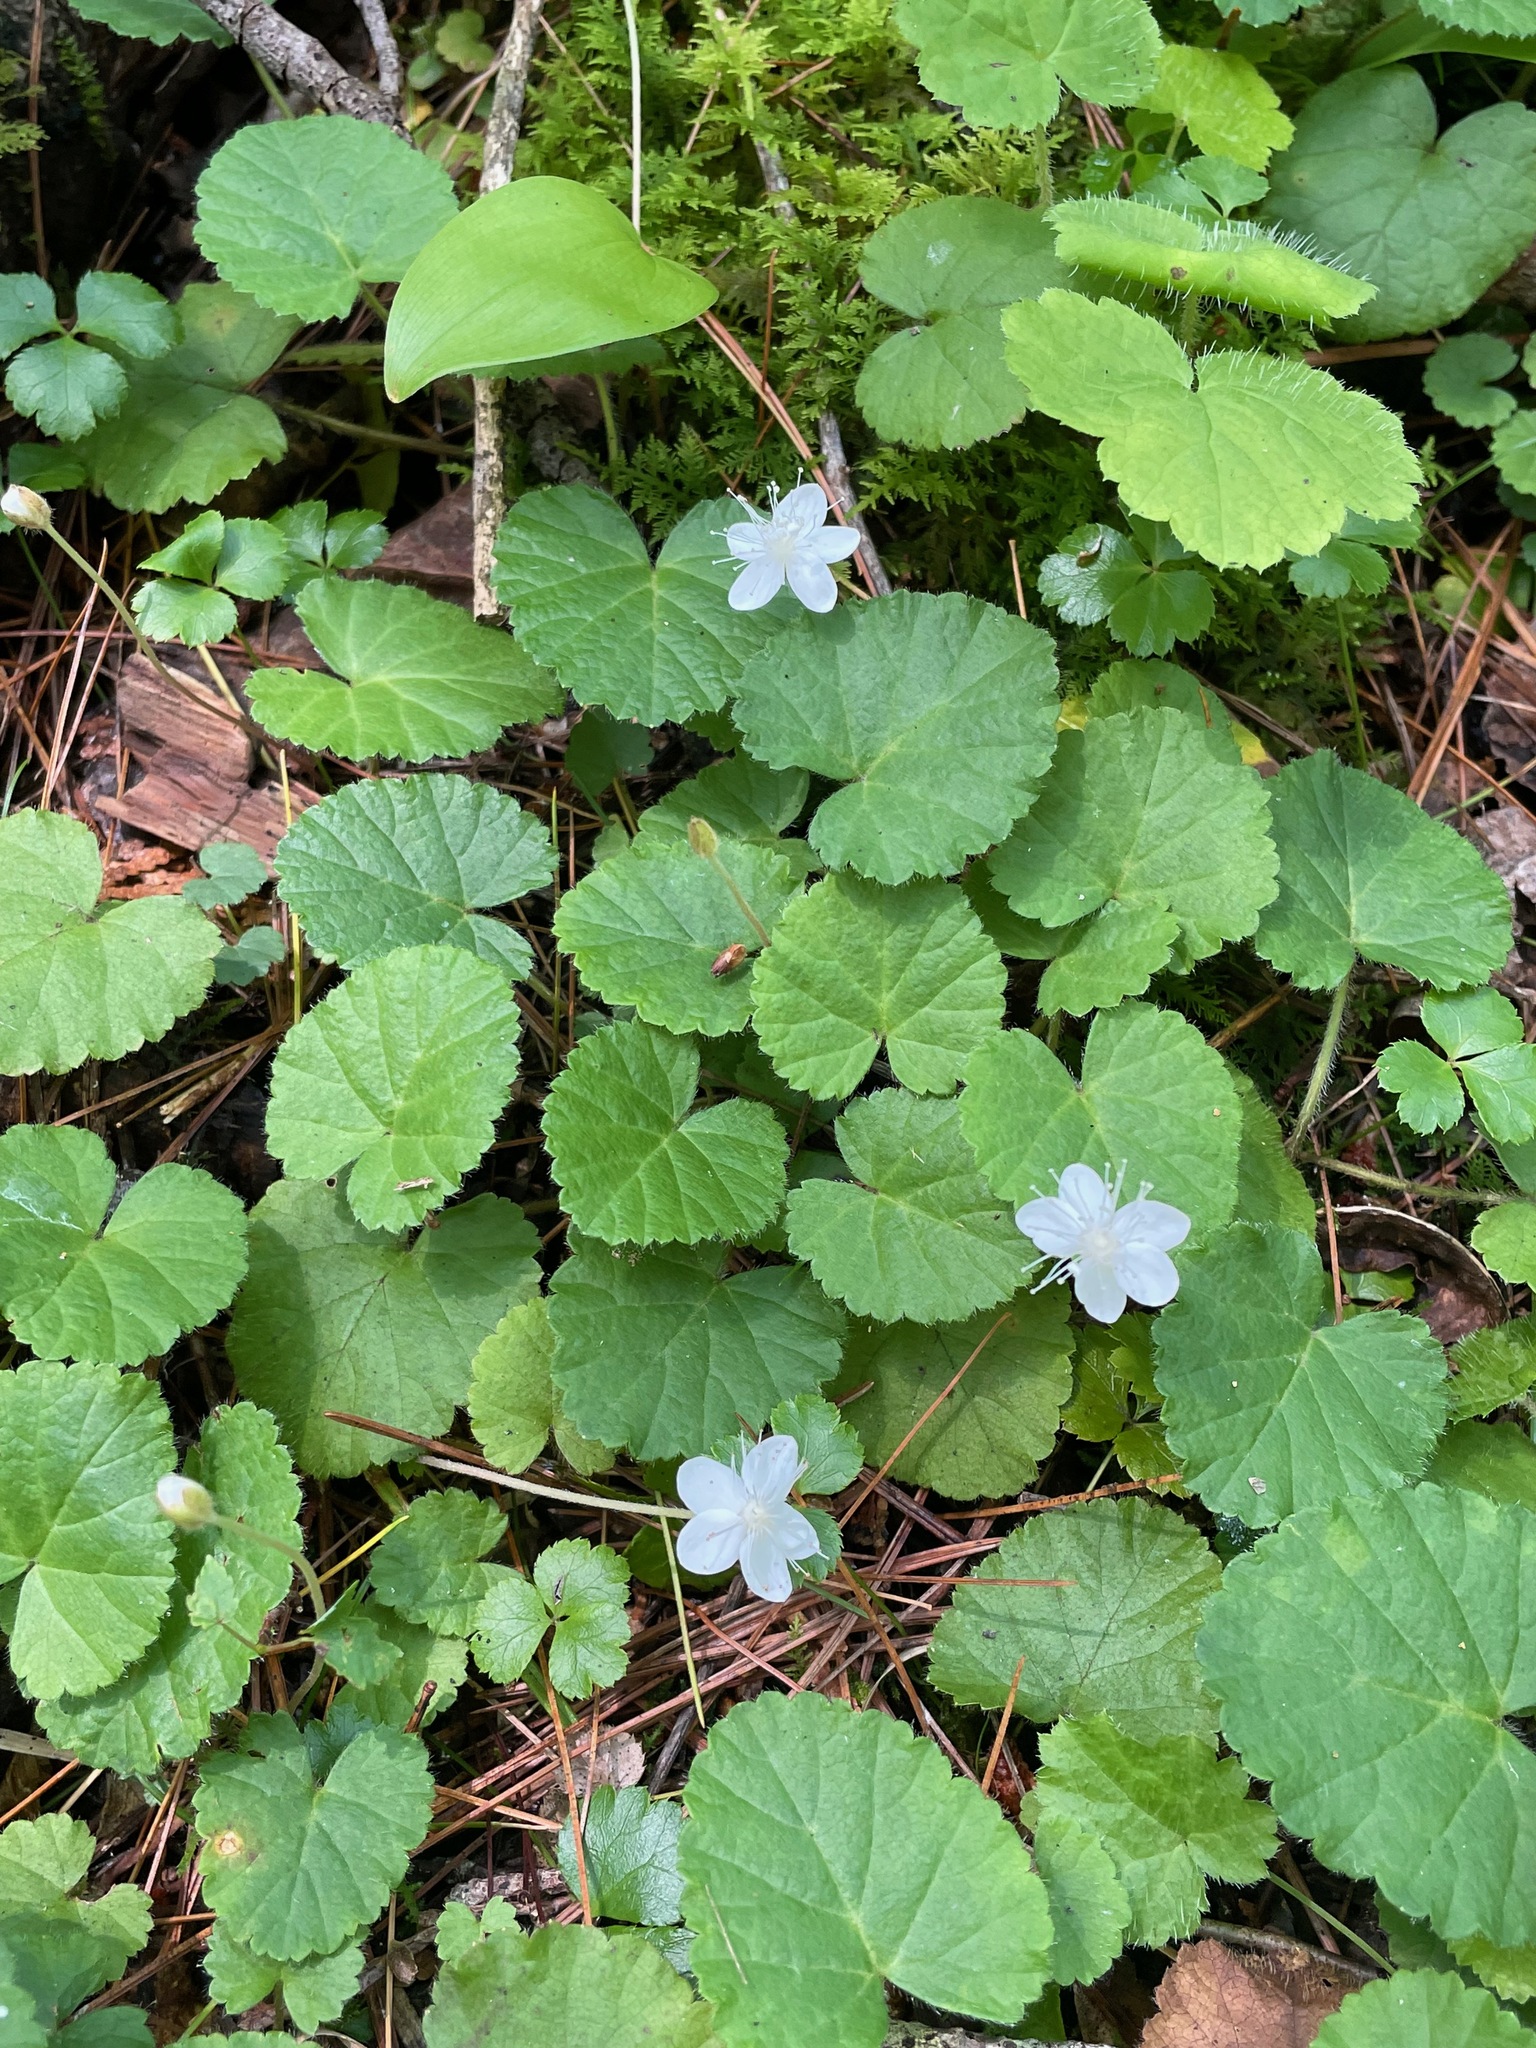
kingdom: Plantae
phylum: Tracheophyta
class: Magnoliopsida
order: Rosales
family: Rosaceae
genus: Dalibarda
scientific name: Dalibarda repens
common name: Dewdrop
